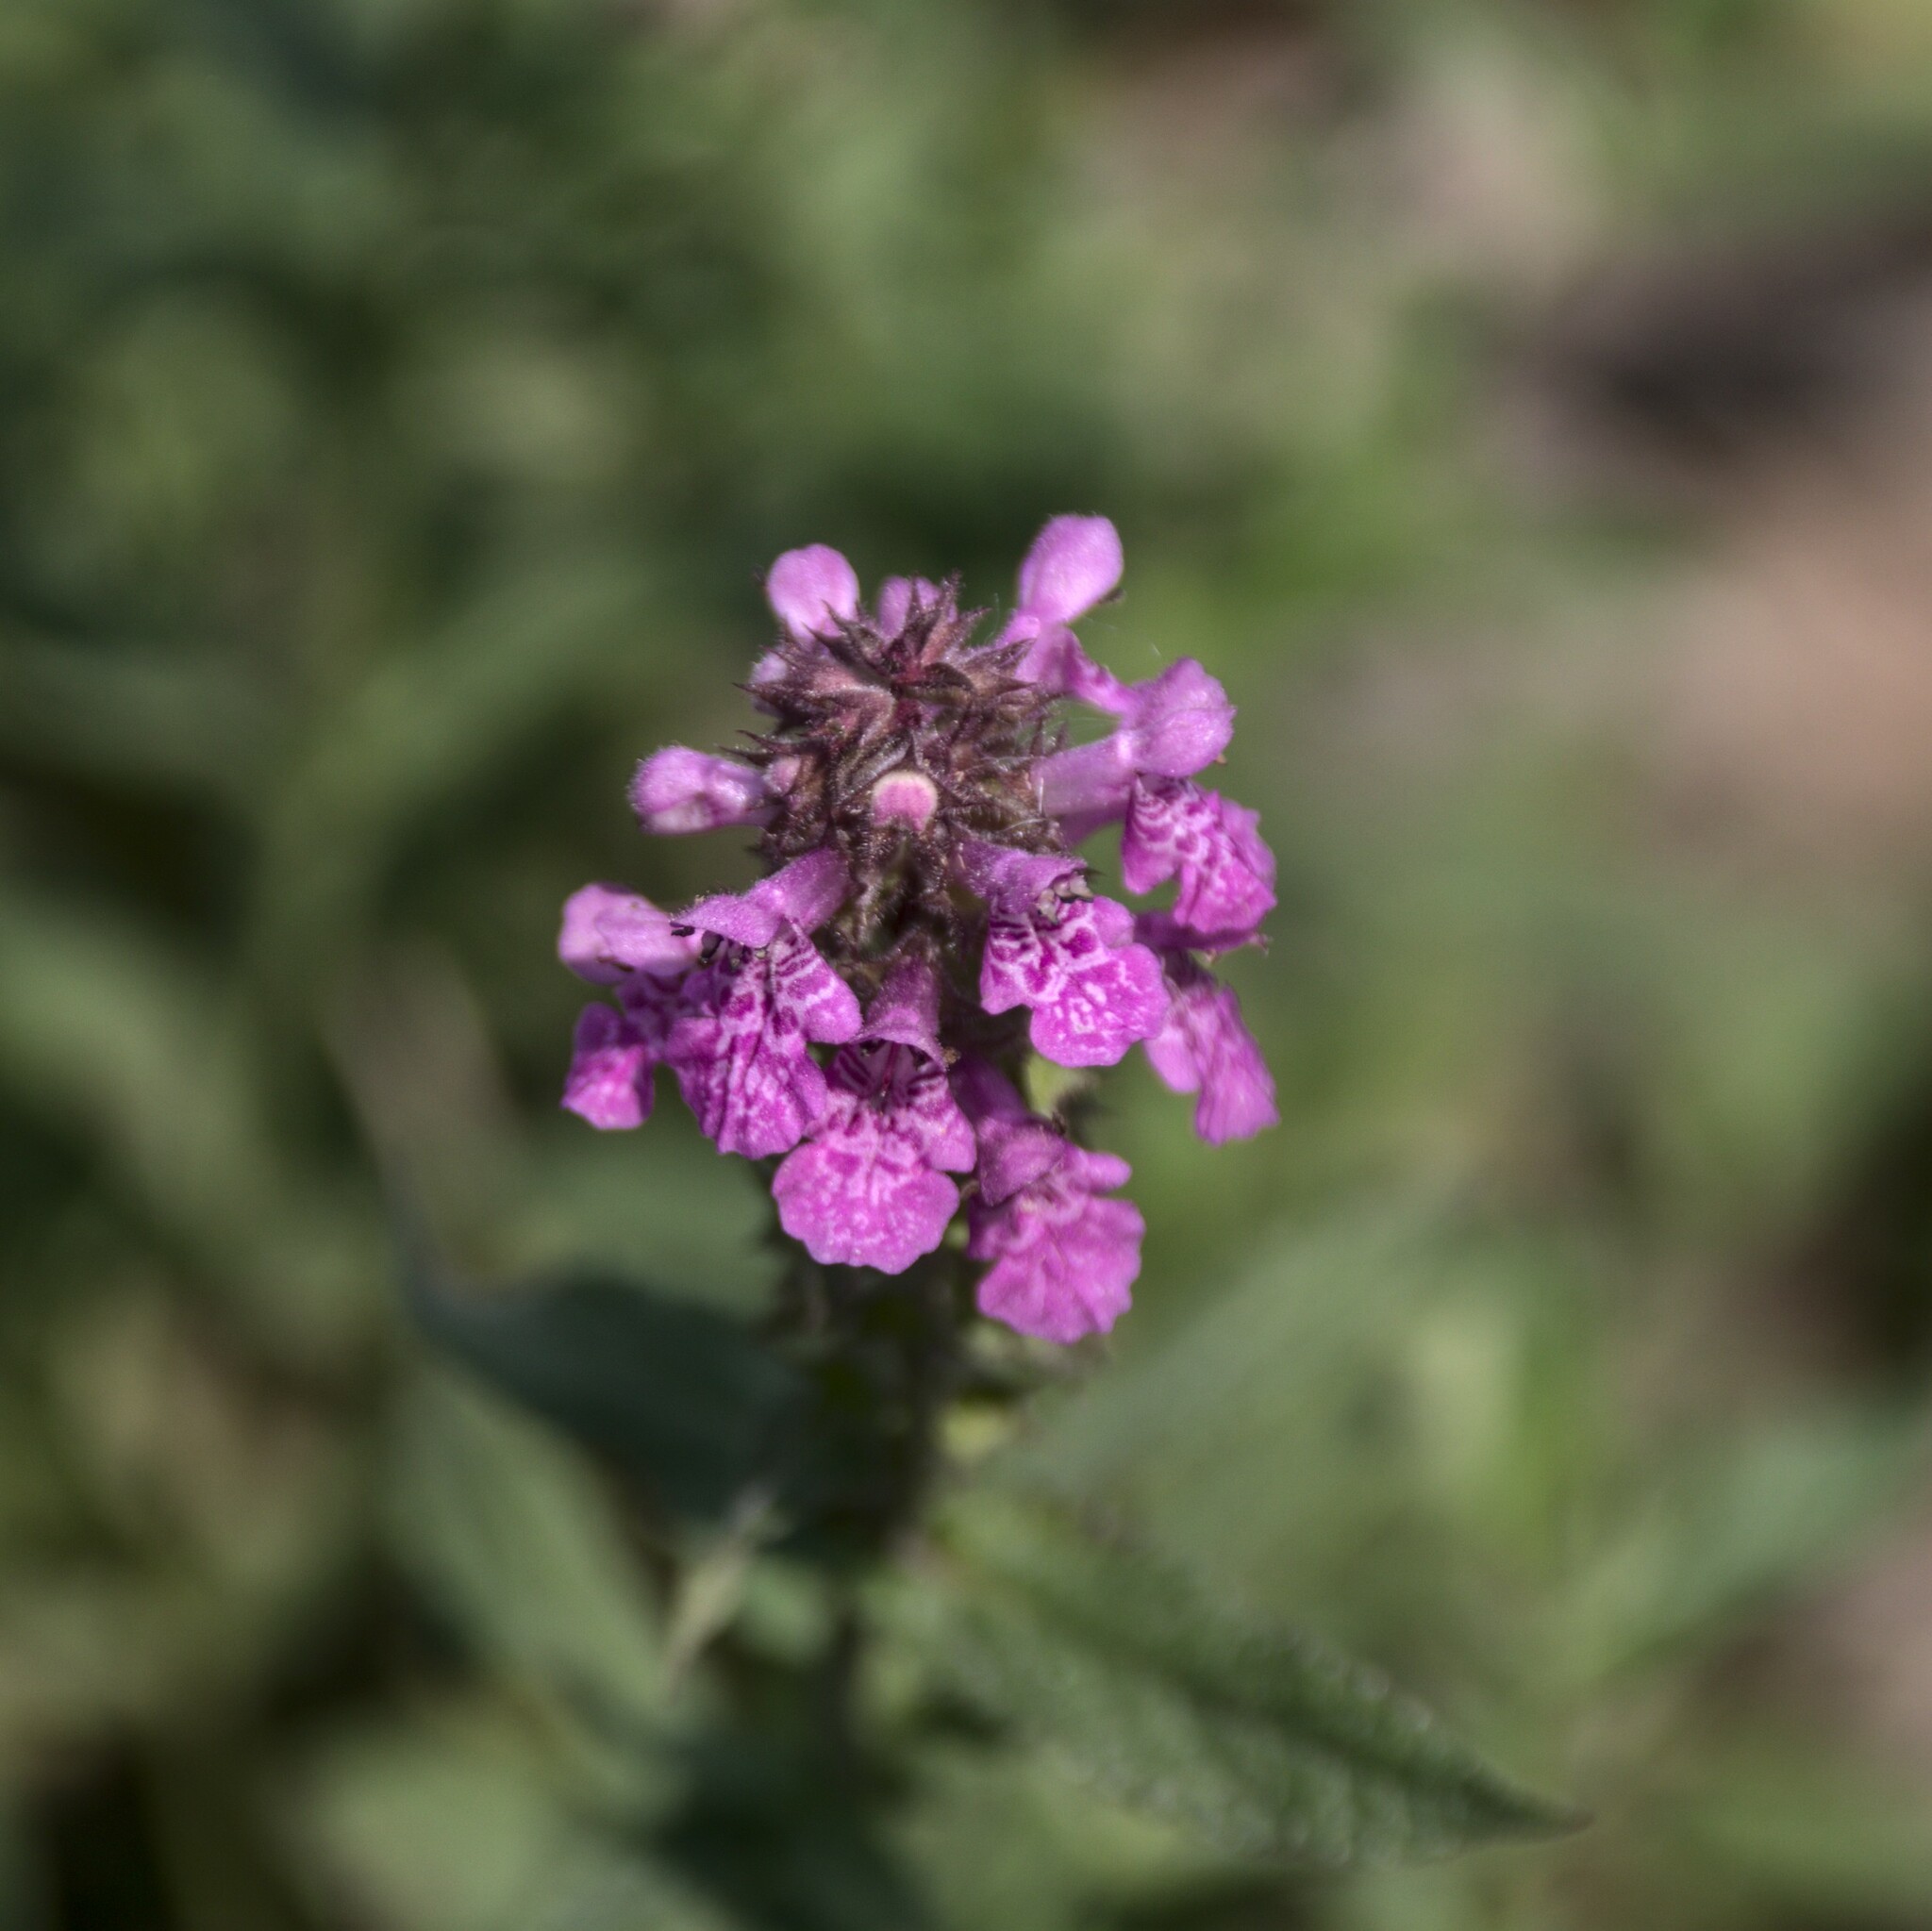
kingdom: Plantae
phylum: Tracheophyta
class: Magnoliopsida
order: Lamiales
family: Lamiaceae
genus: Stachys
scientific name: Stachys palustris
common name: Marsh woundwort
